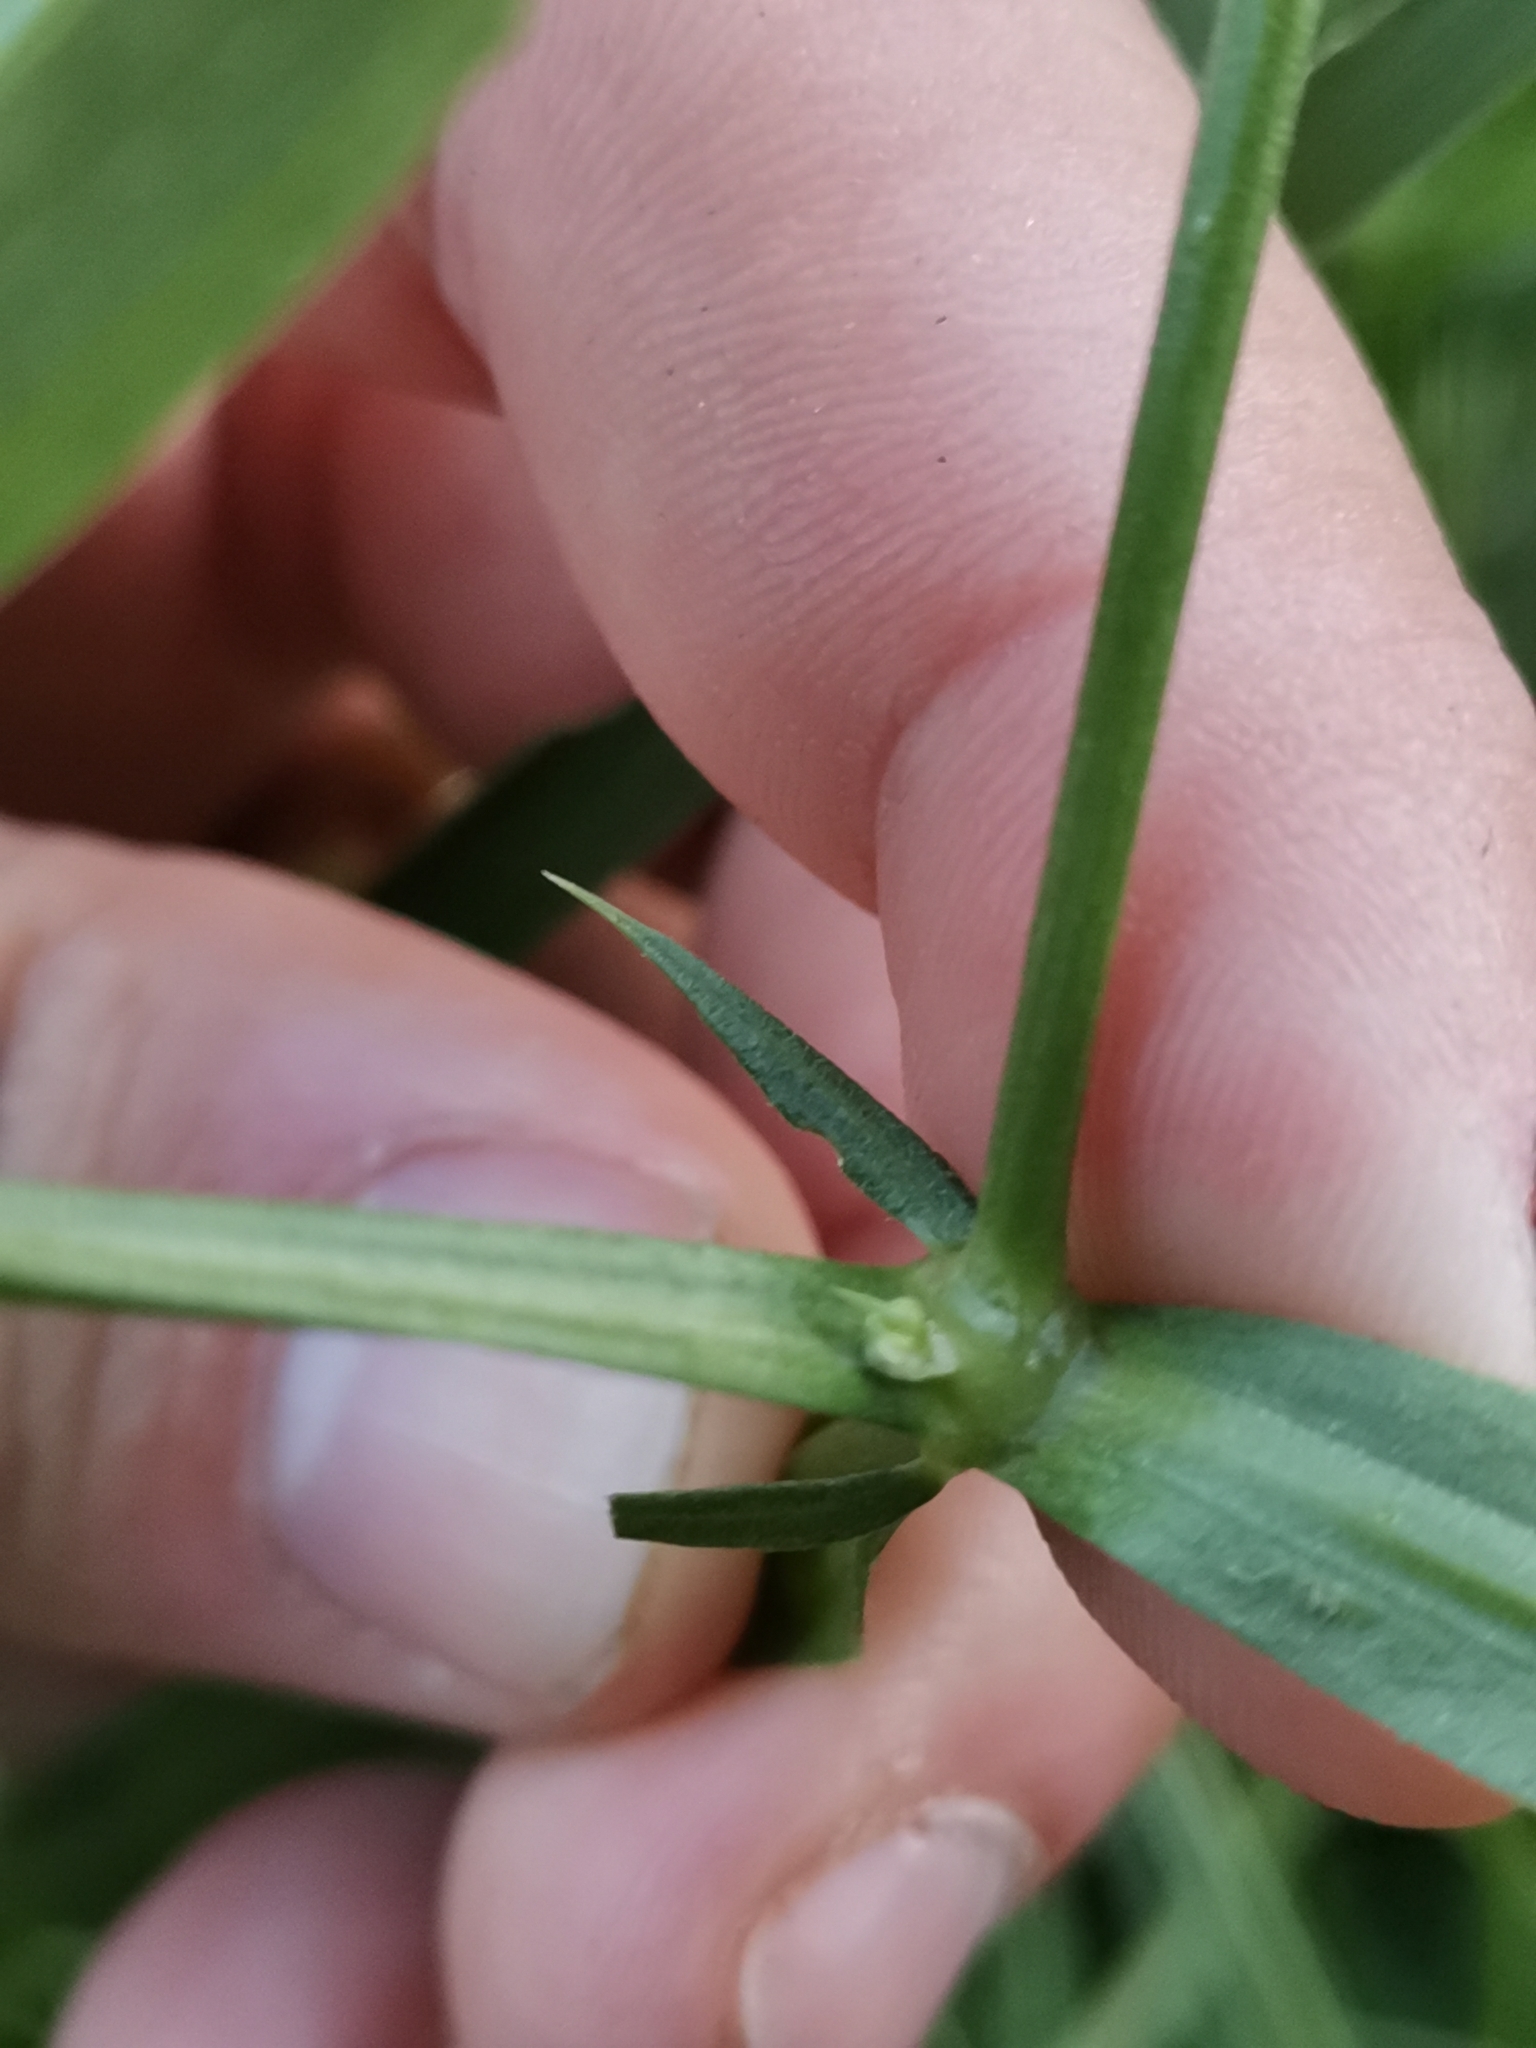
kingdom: Plantae
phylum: Tracheophyta
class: Magnoliopsida
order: Fabales
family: Fabaceae
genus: Lathyrus
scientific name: Lathyrus sylvestris
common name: Flat pea
